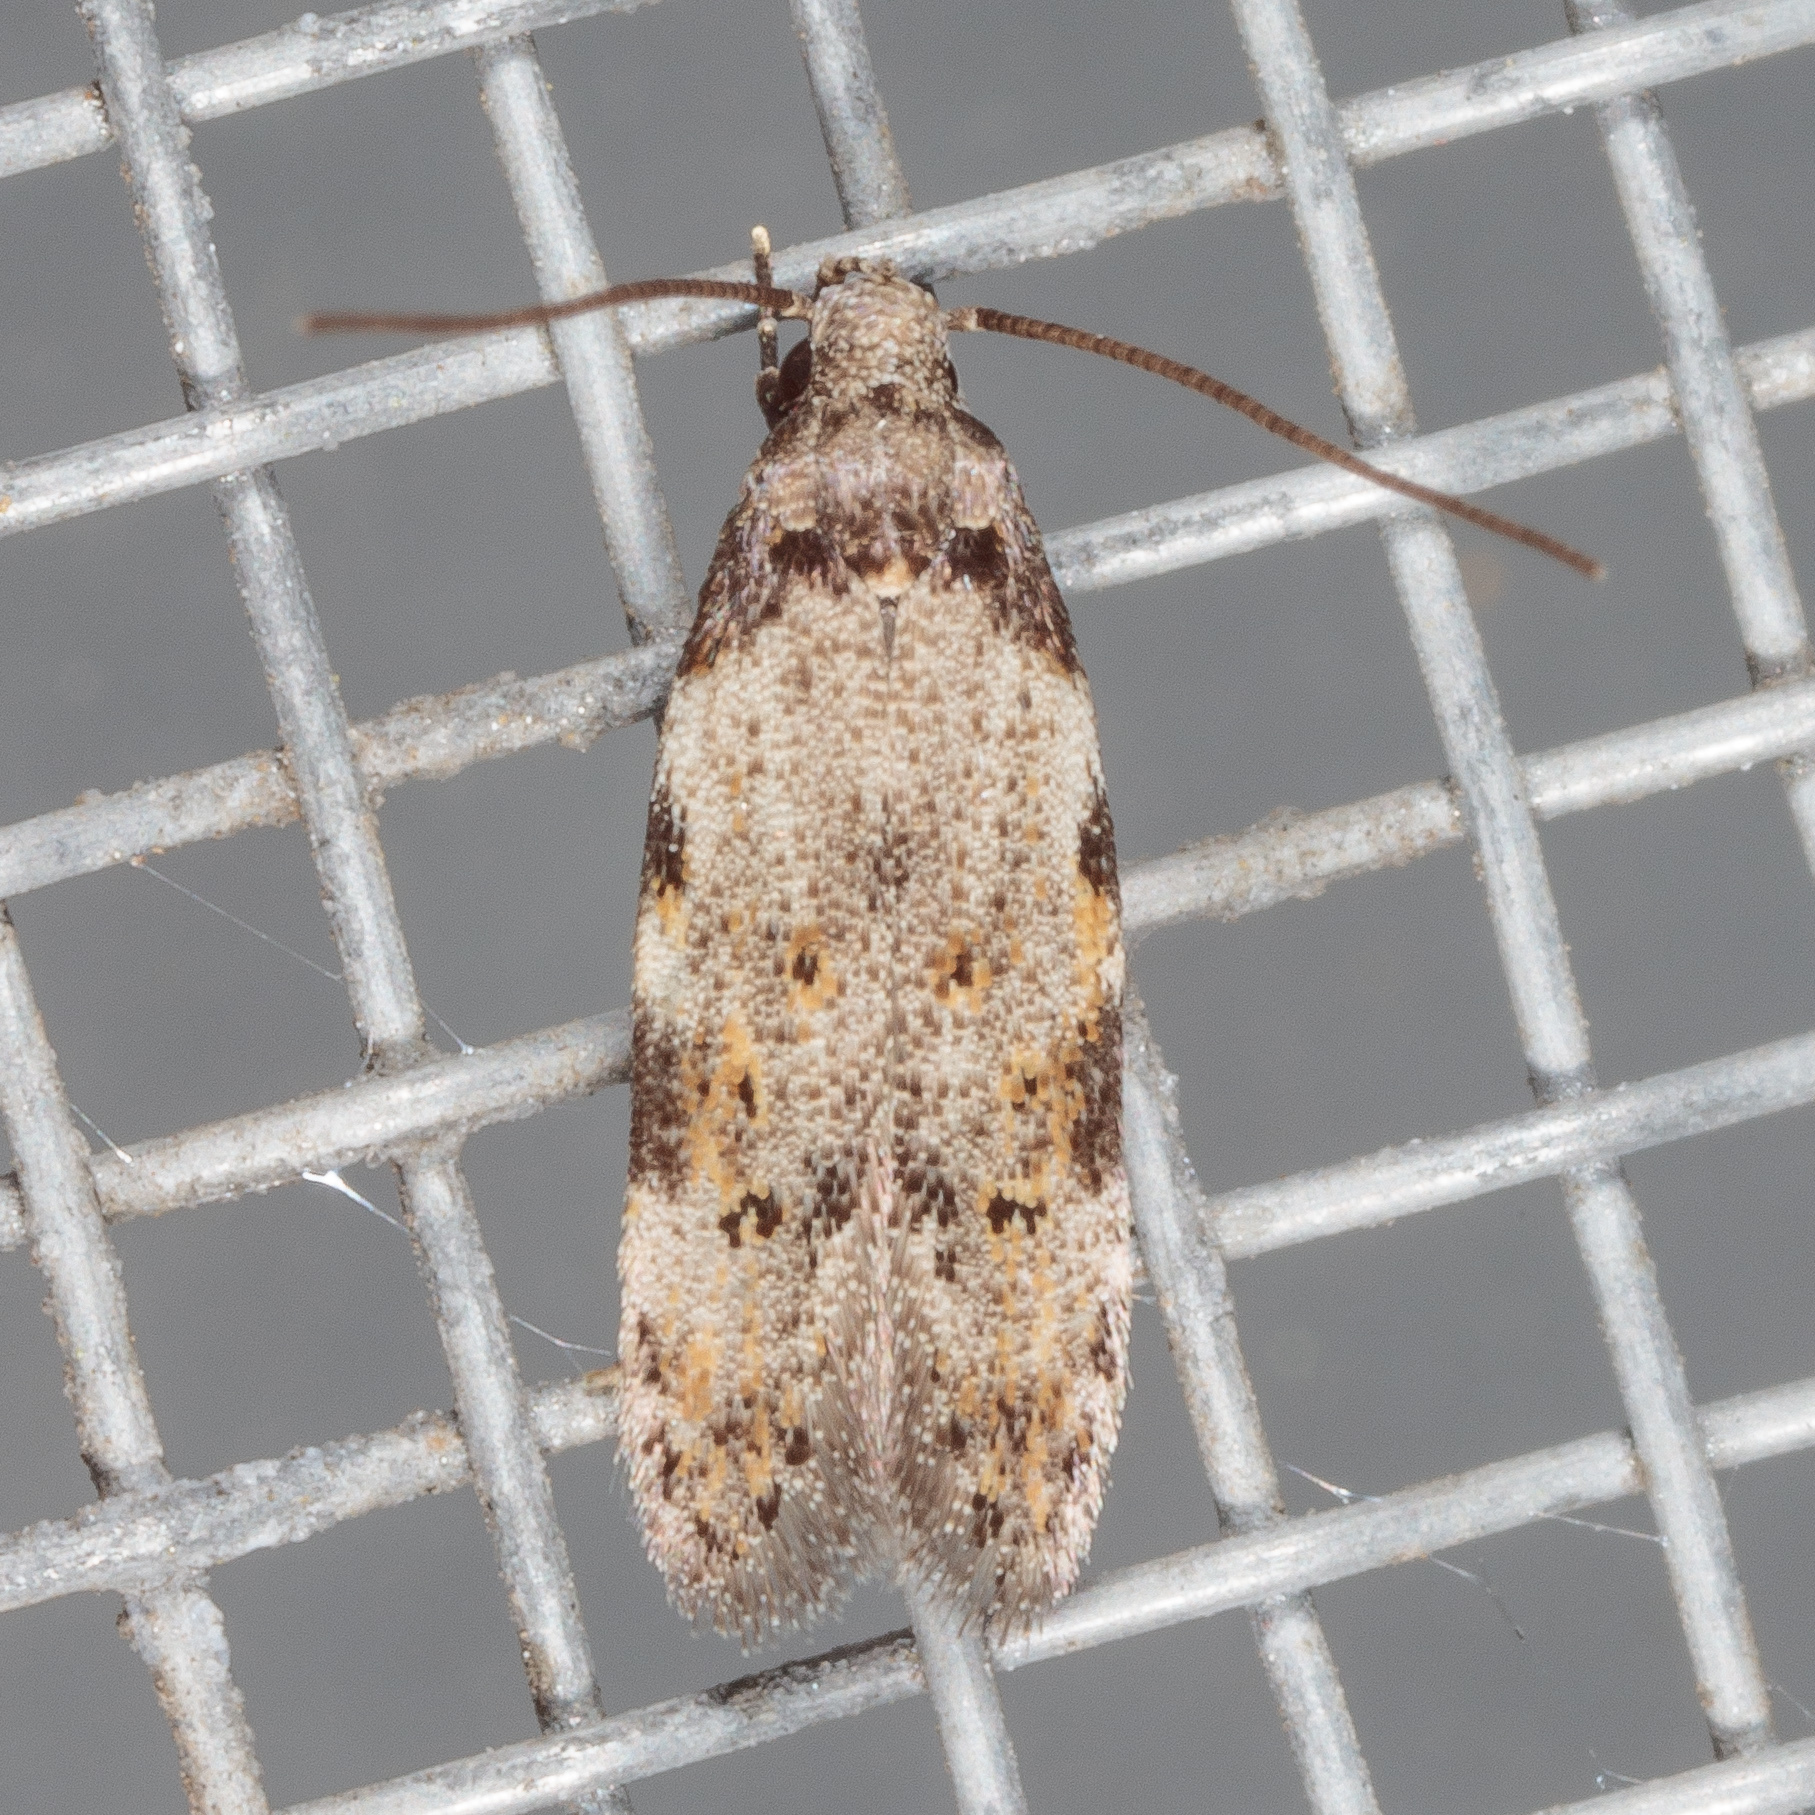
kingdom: Animalia
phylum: Arthropoda
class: Insecta
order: Lepidoptera
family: Autostichidae
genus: Taygete
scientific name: Taygete attributella
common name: Triangle-marked twirler moth
